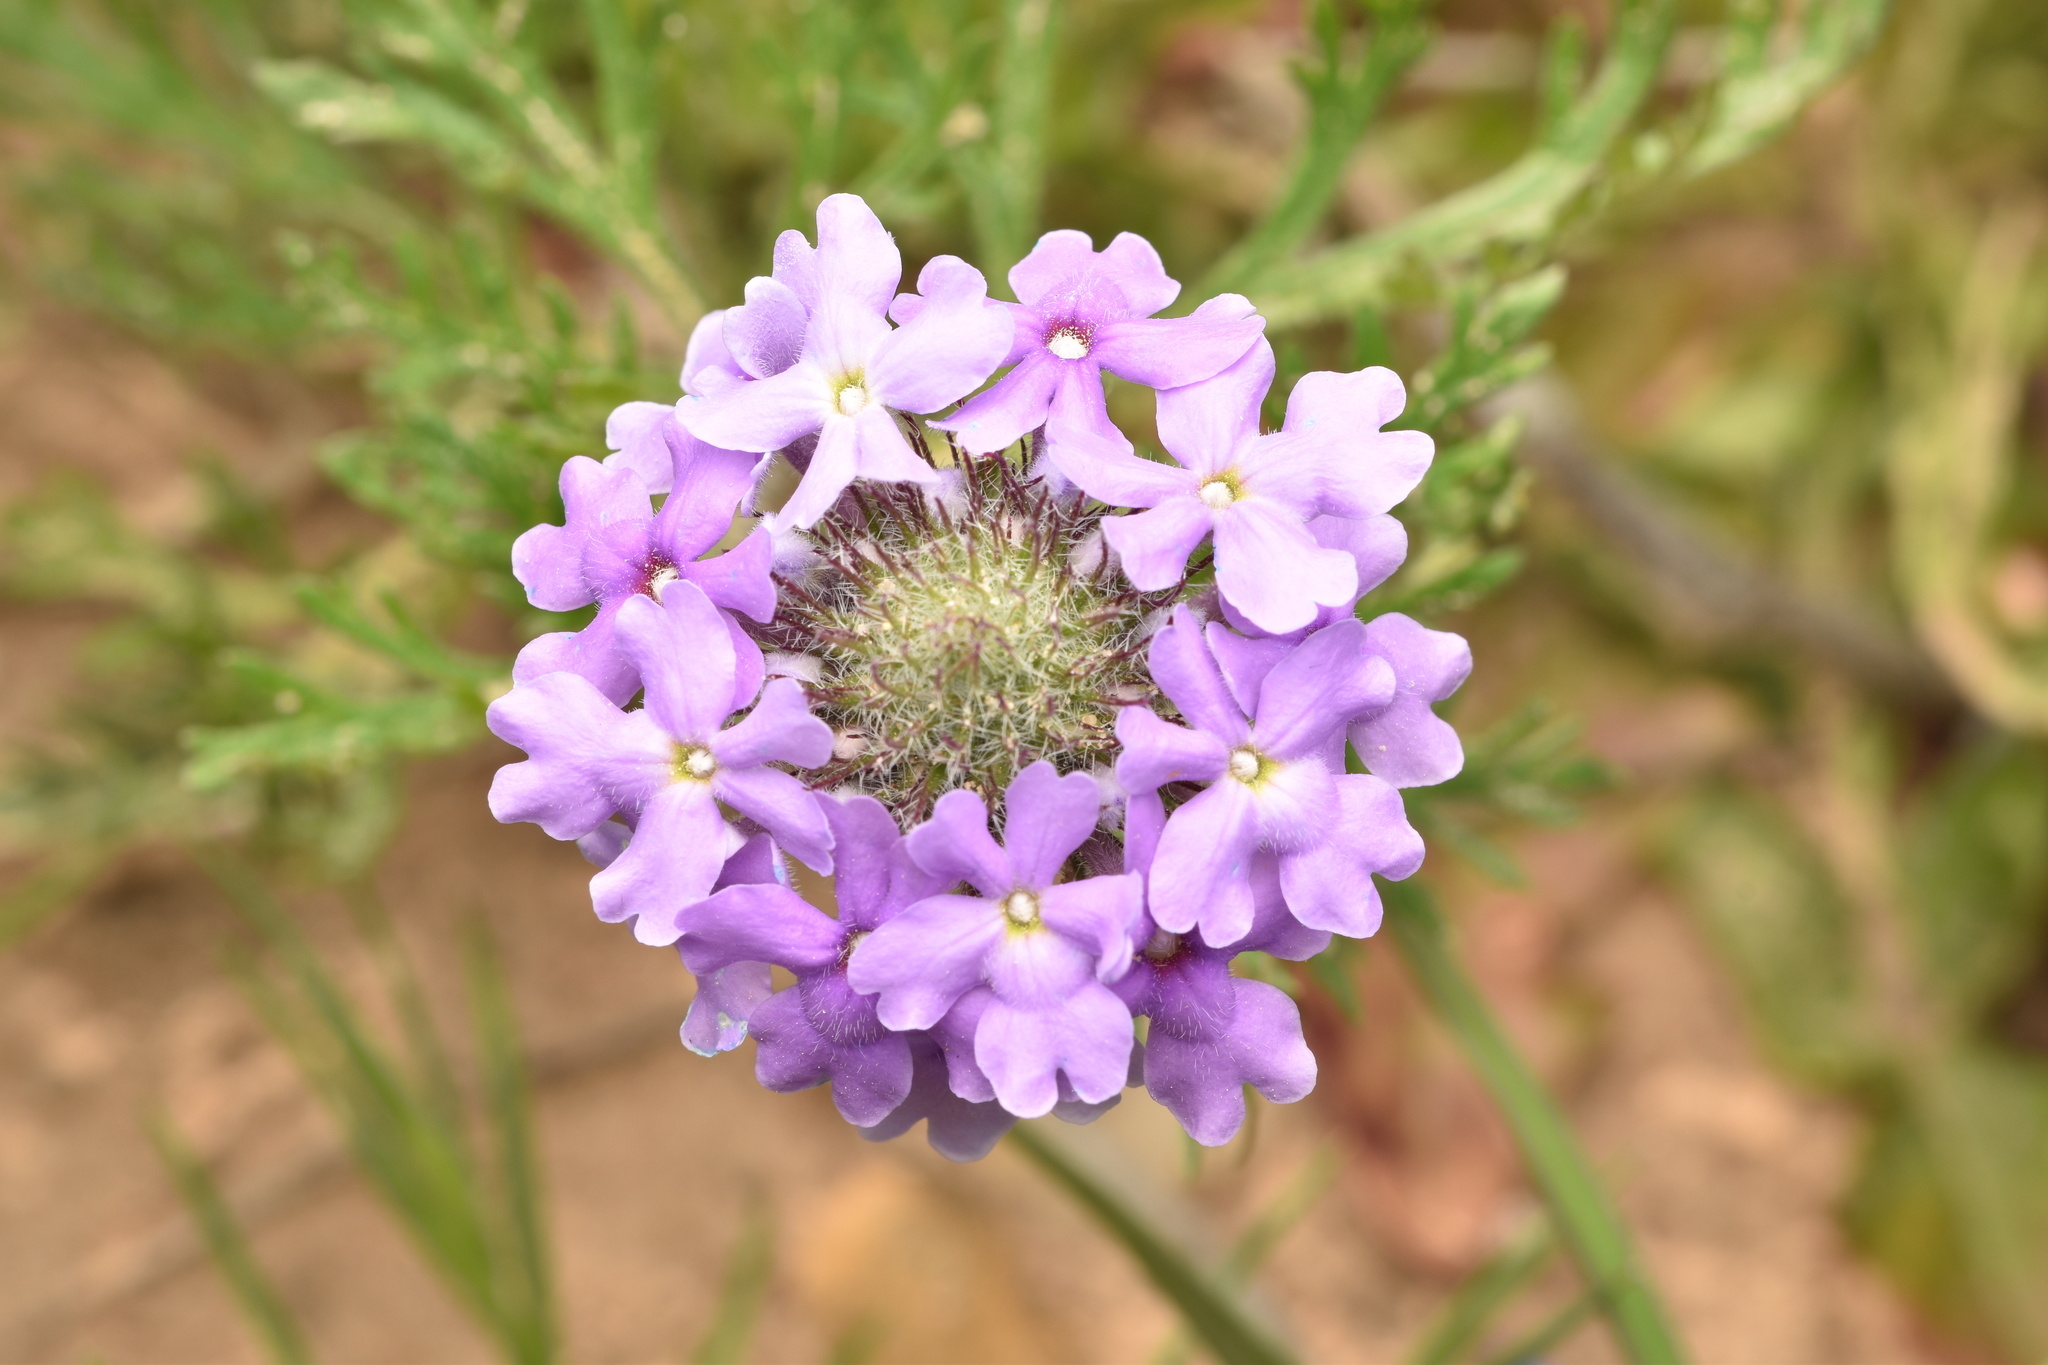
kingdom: Plantae
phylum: Tracheophyta
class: Magnoliopsida
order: Lamiales
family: Verbenaceae
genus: Verbena
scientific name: Verbena bipinnatifida
